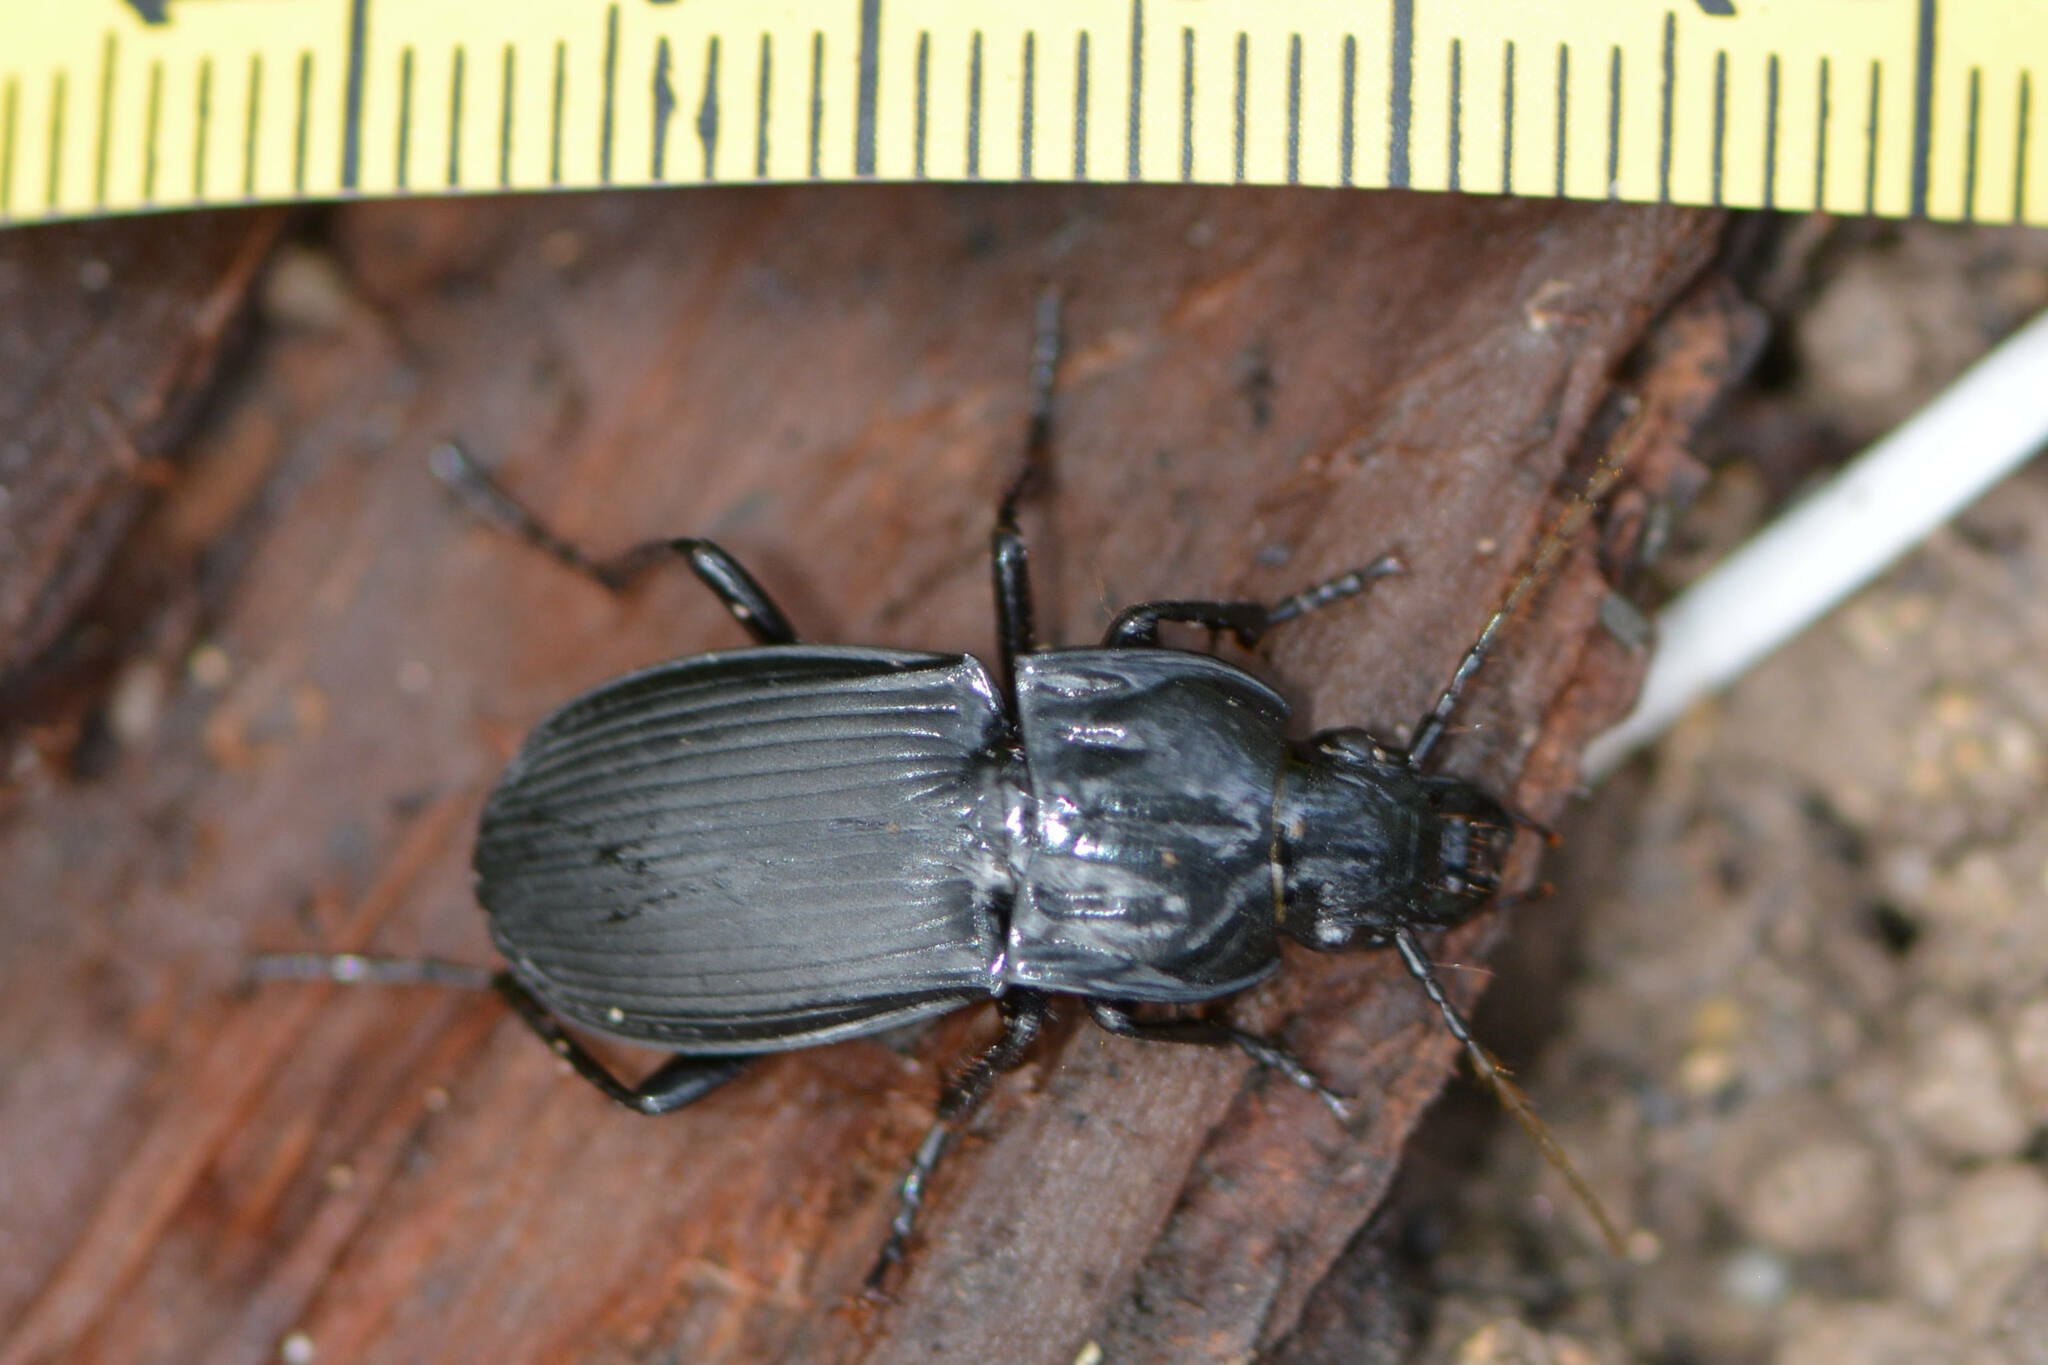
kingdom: Animalia
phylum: Arthropoda
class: Insecta
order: Coleoptera
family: Carabidae
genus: Abax
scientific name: Abax parallelepipedus
